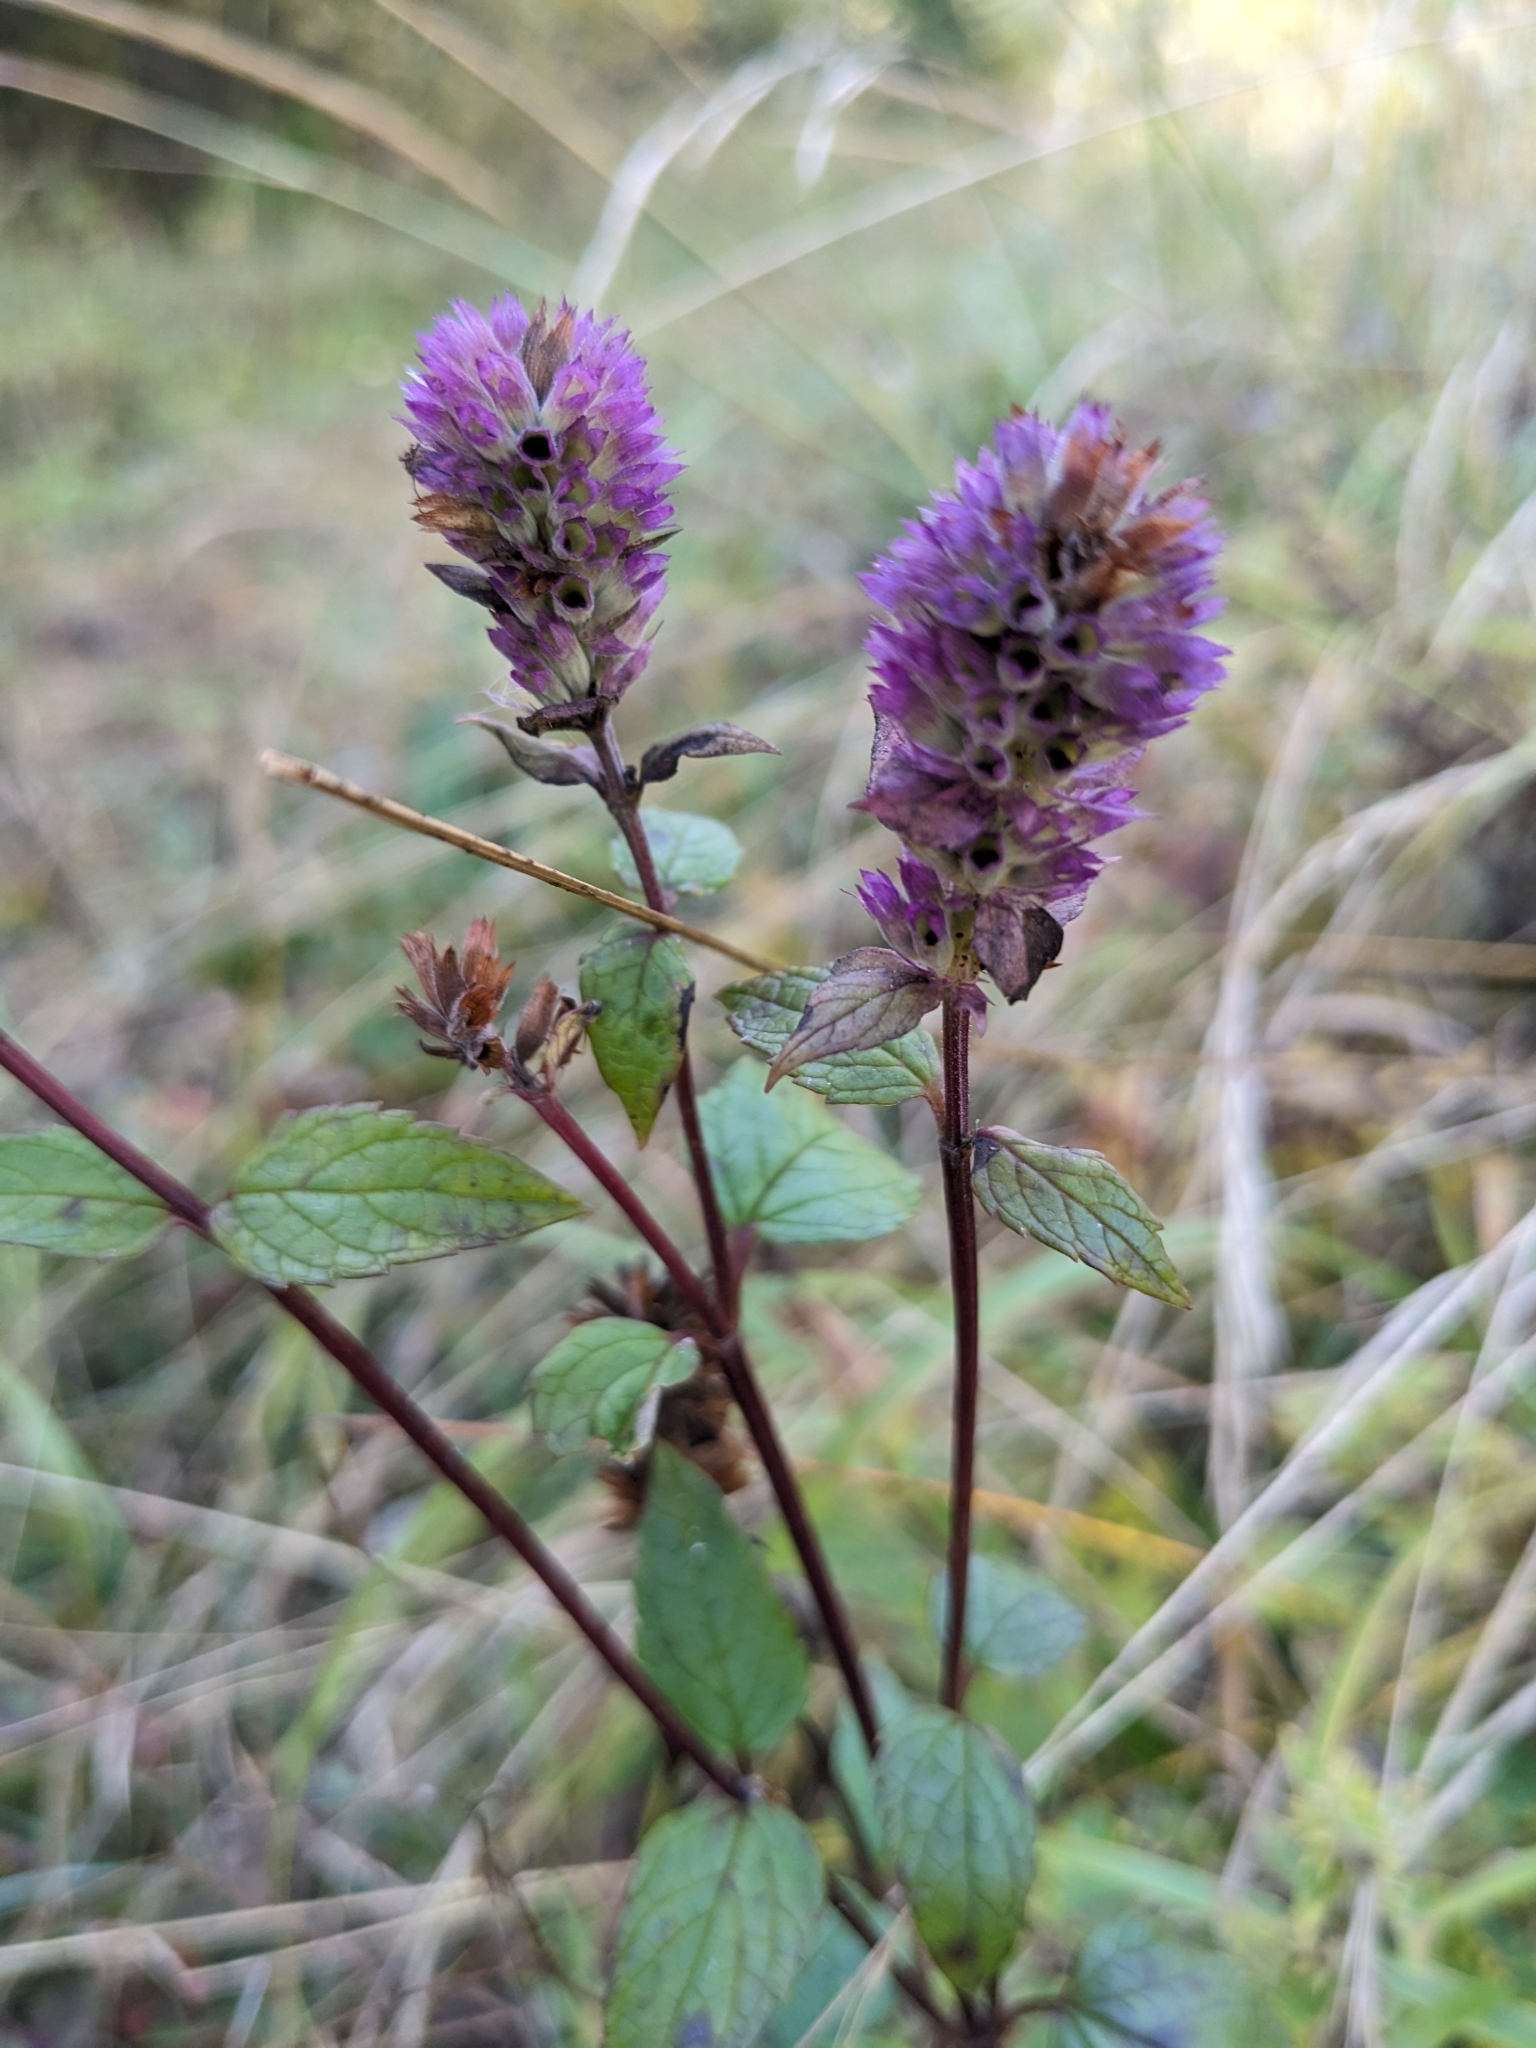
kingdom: Plantae
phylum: Tracheophyta
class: Magnoliopsida
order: Lamiales
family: Lamiaceae
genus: Agastache
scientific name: Agastache foeniculum
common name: Anise hyssop
